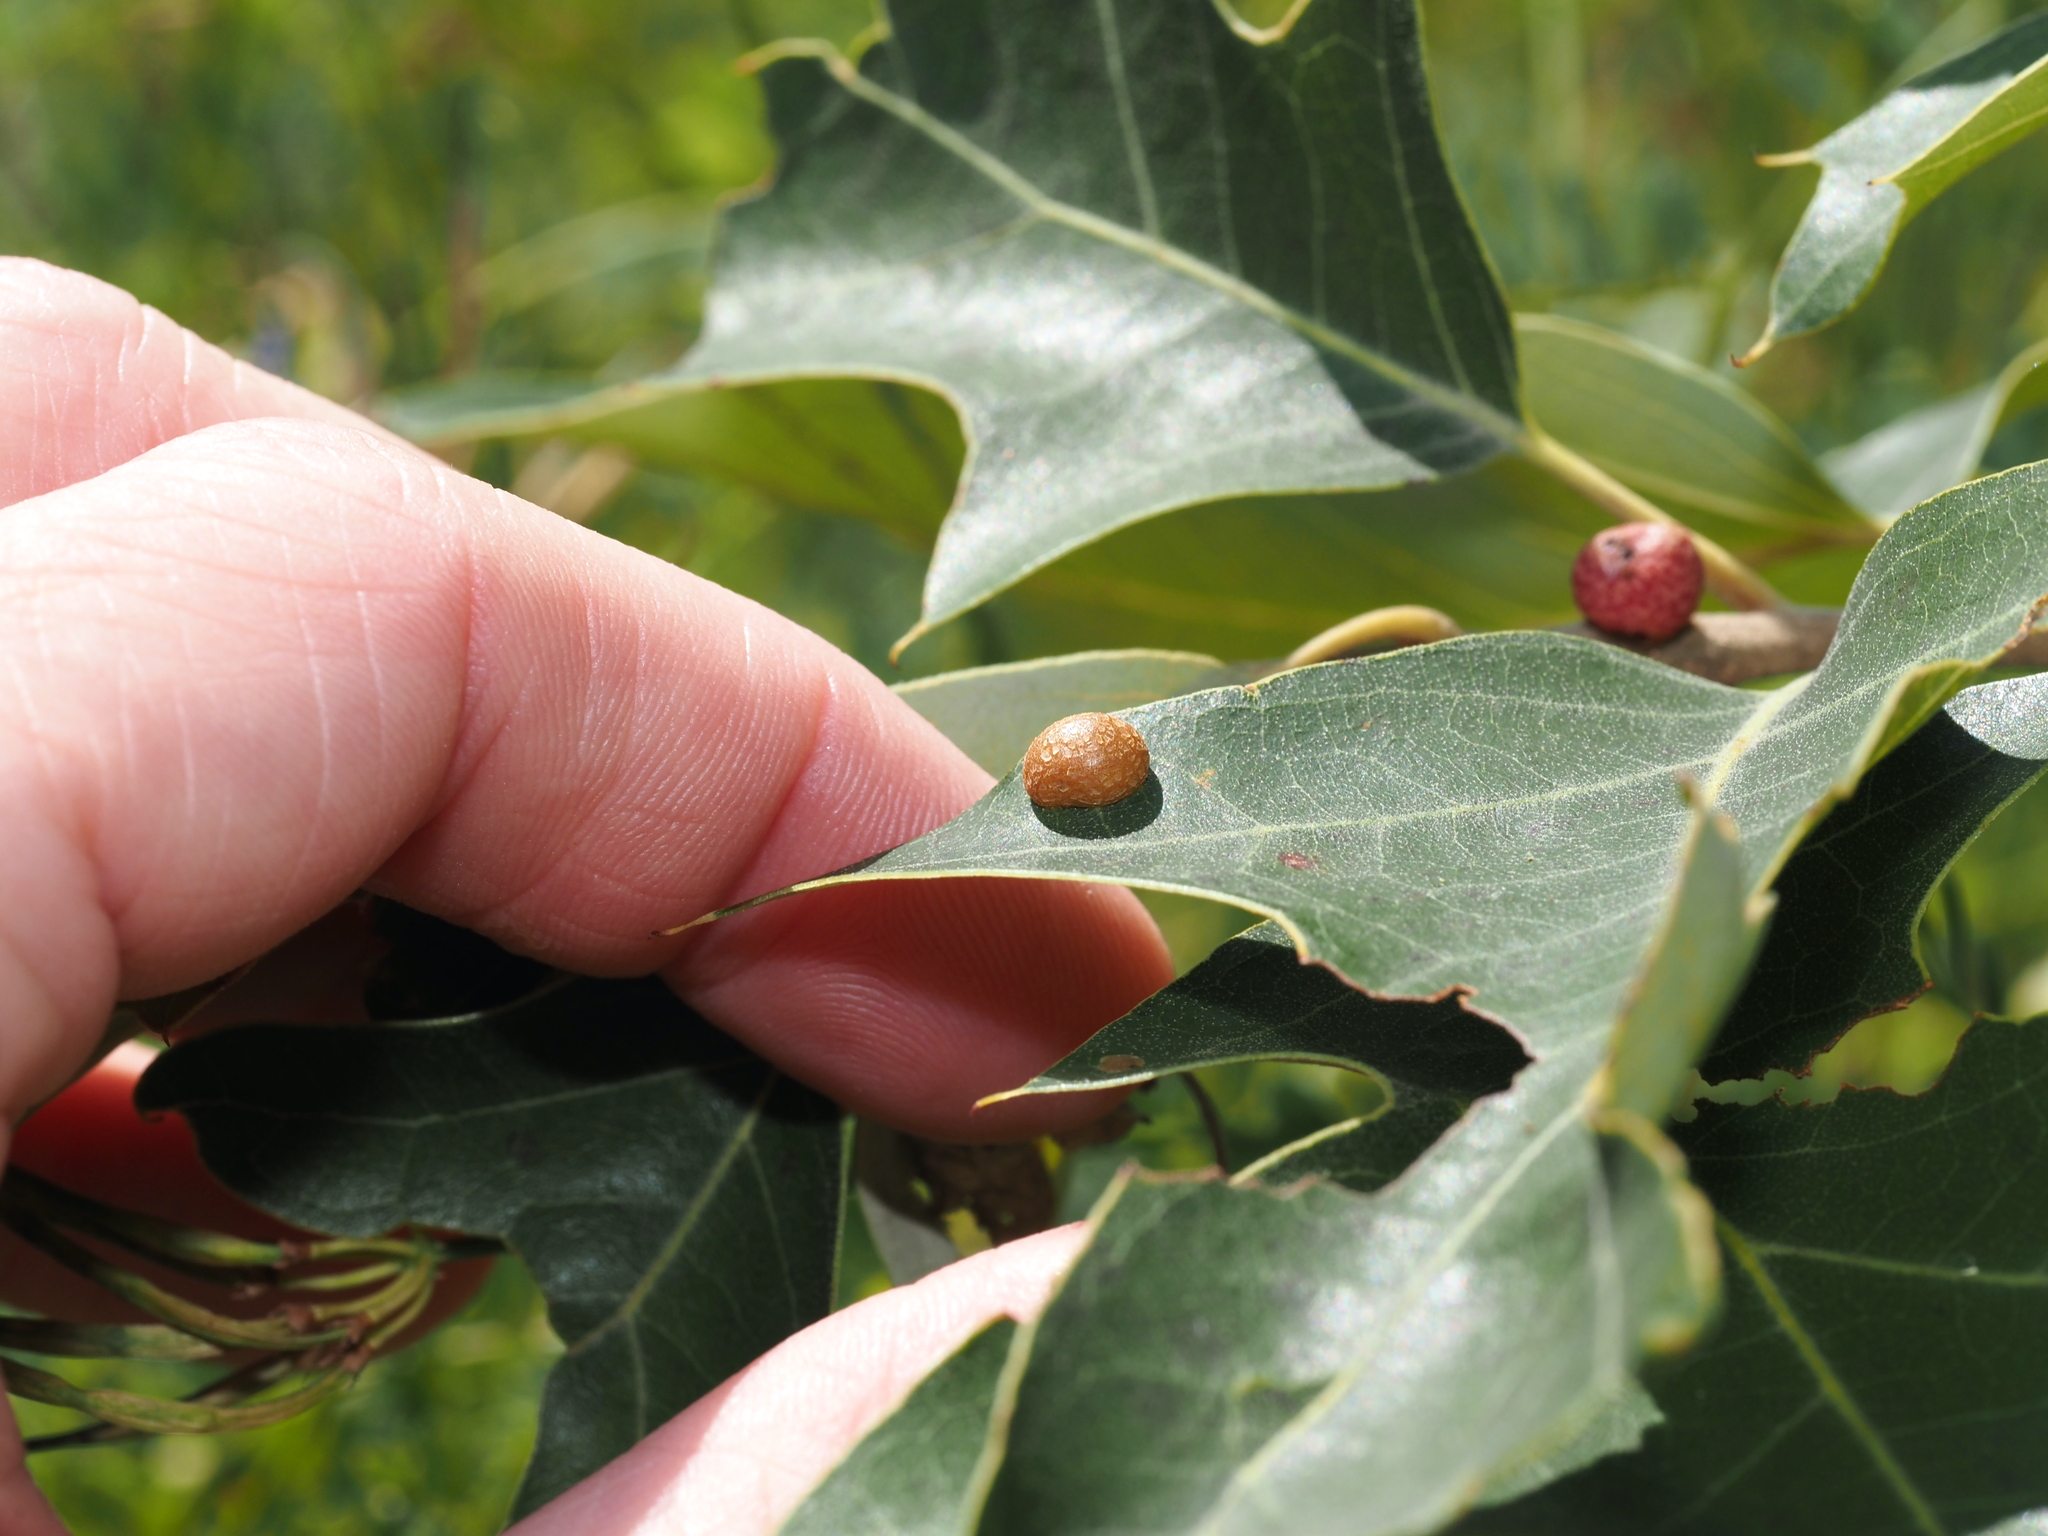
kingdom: Animalia
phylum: Arthropoda
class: Insecta
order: Diptera
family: Cecidomyiidae
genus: Polystepha
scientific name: Polystepha pilulae
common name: Oak leaf gall midge
